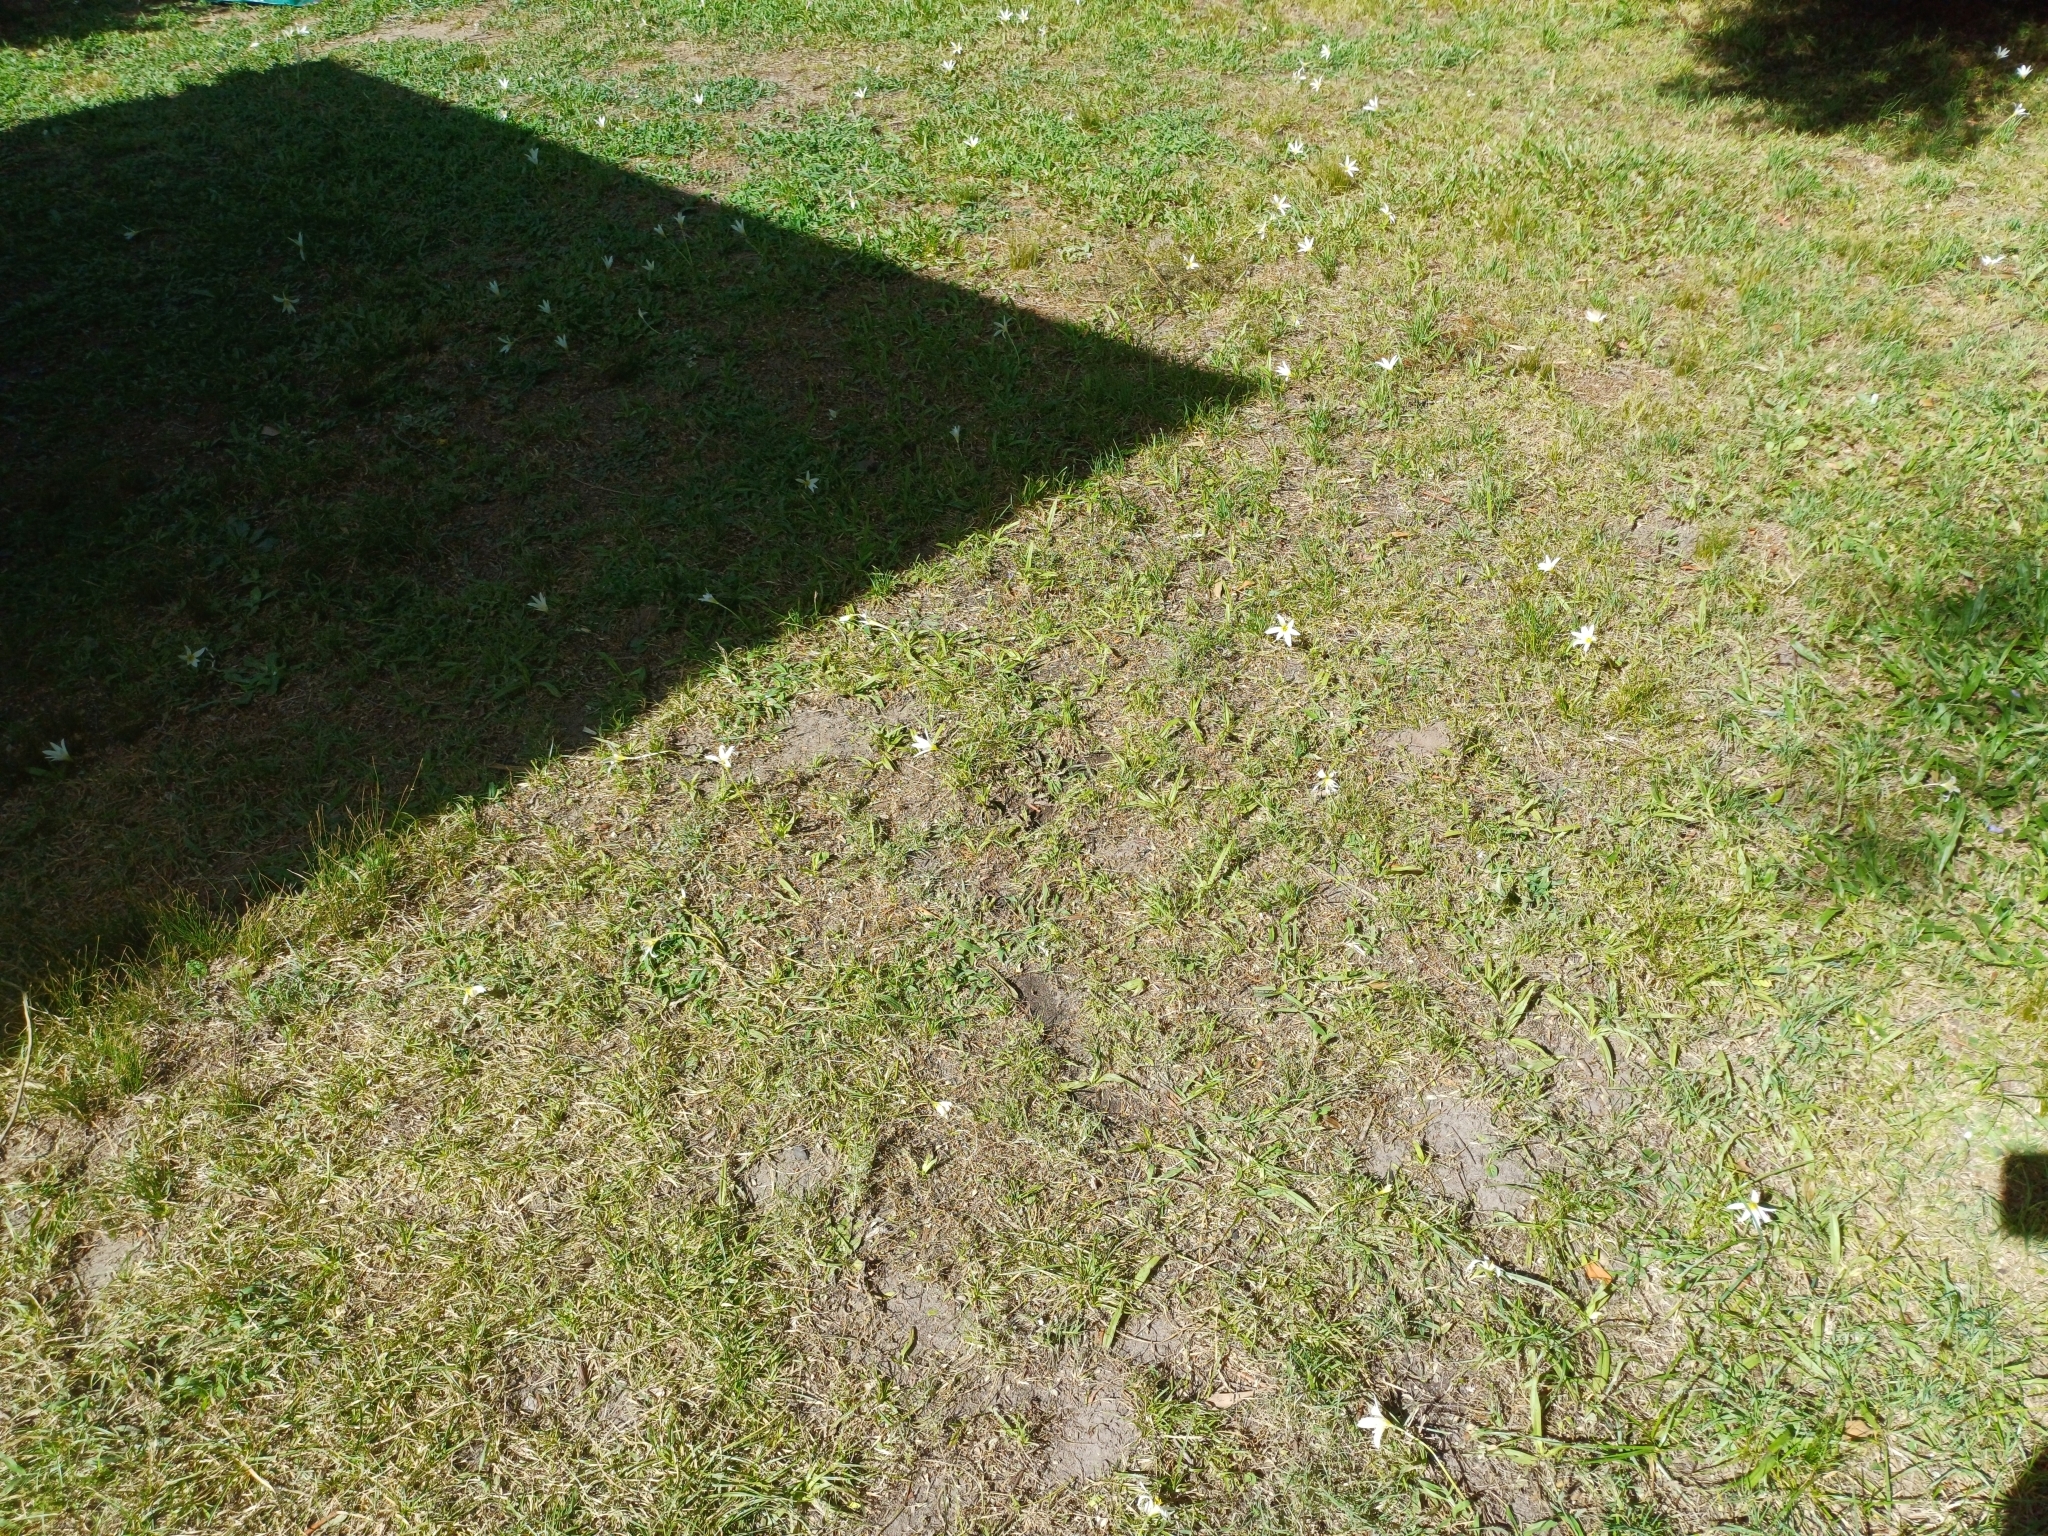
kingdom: Plantae
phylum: Tracheophyta
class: Liliopsida
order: Asparagales
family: Amaryllidaceae
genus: Zephyranthes
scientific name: Zephyranthes mesochloa
